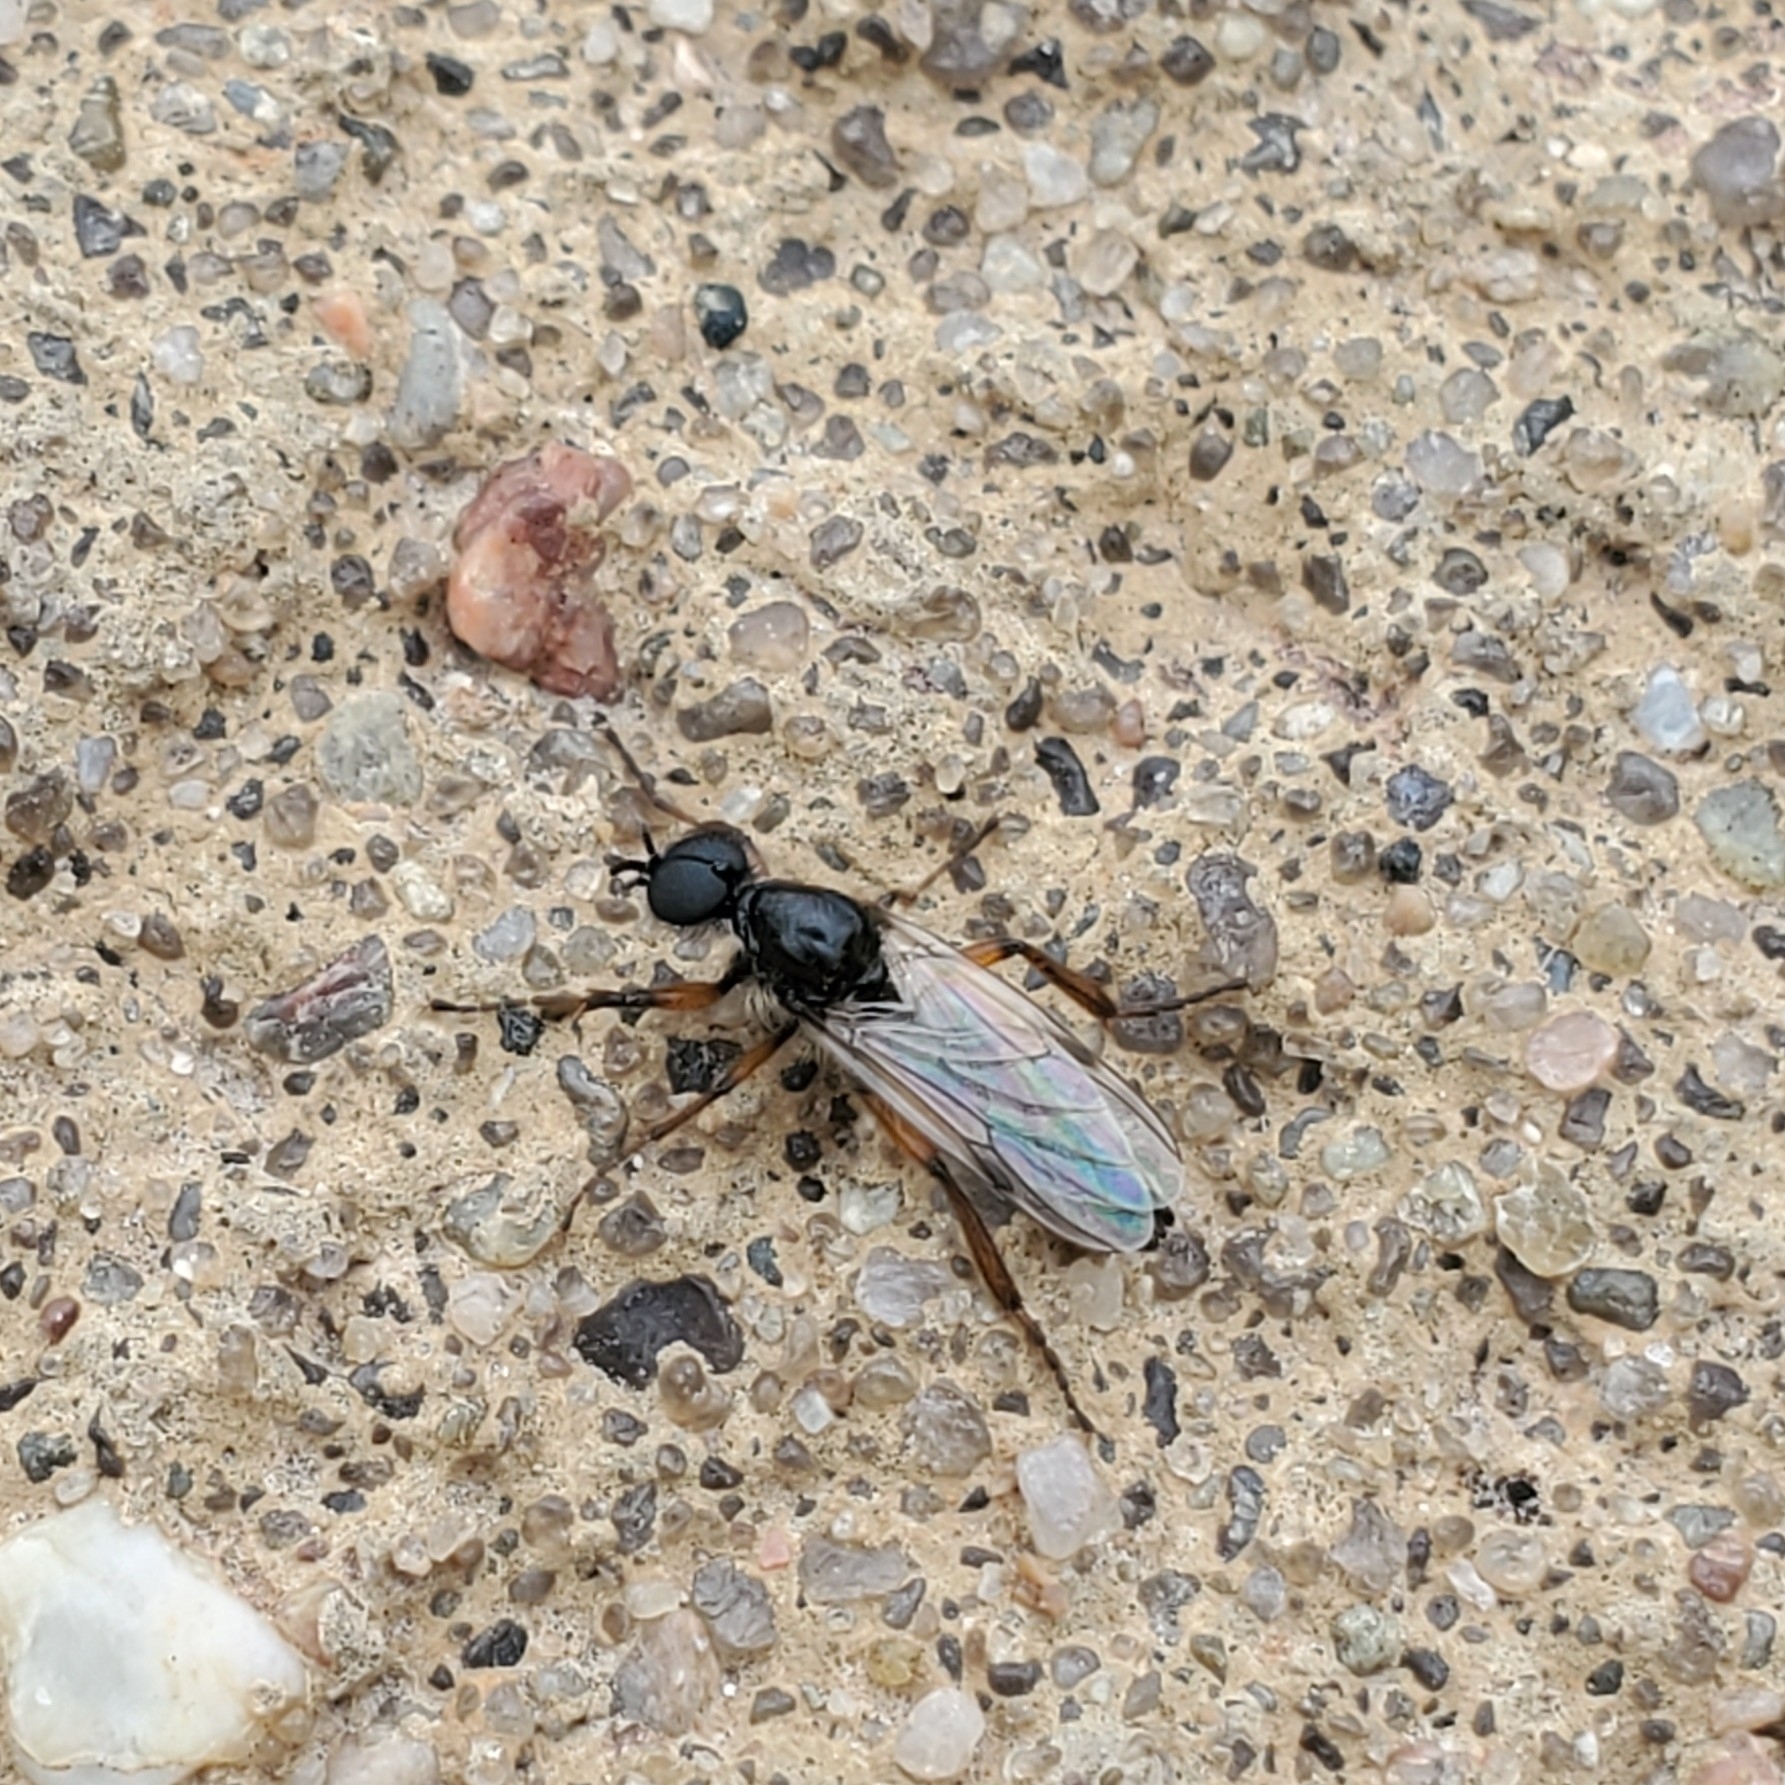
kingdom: Animalia
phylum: Arthropoda
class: Insecta
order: Diptera
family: Bibionidae
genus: Bibio
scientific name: Bibio articulatus
